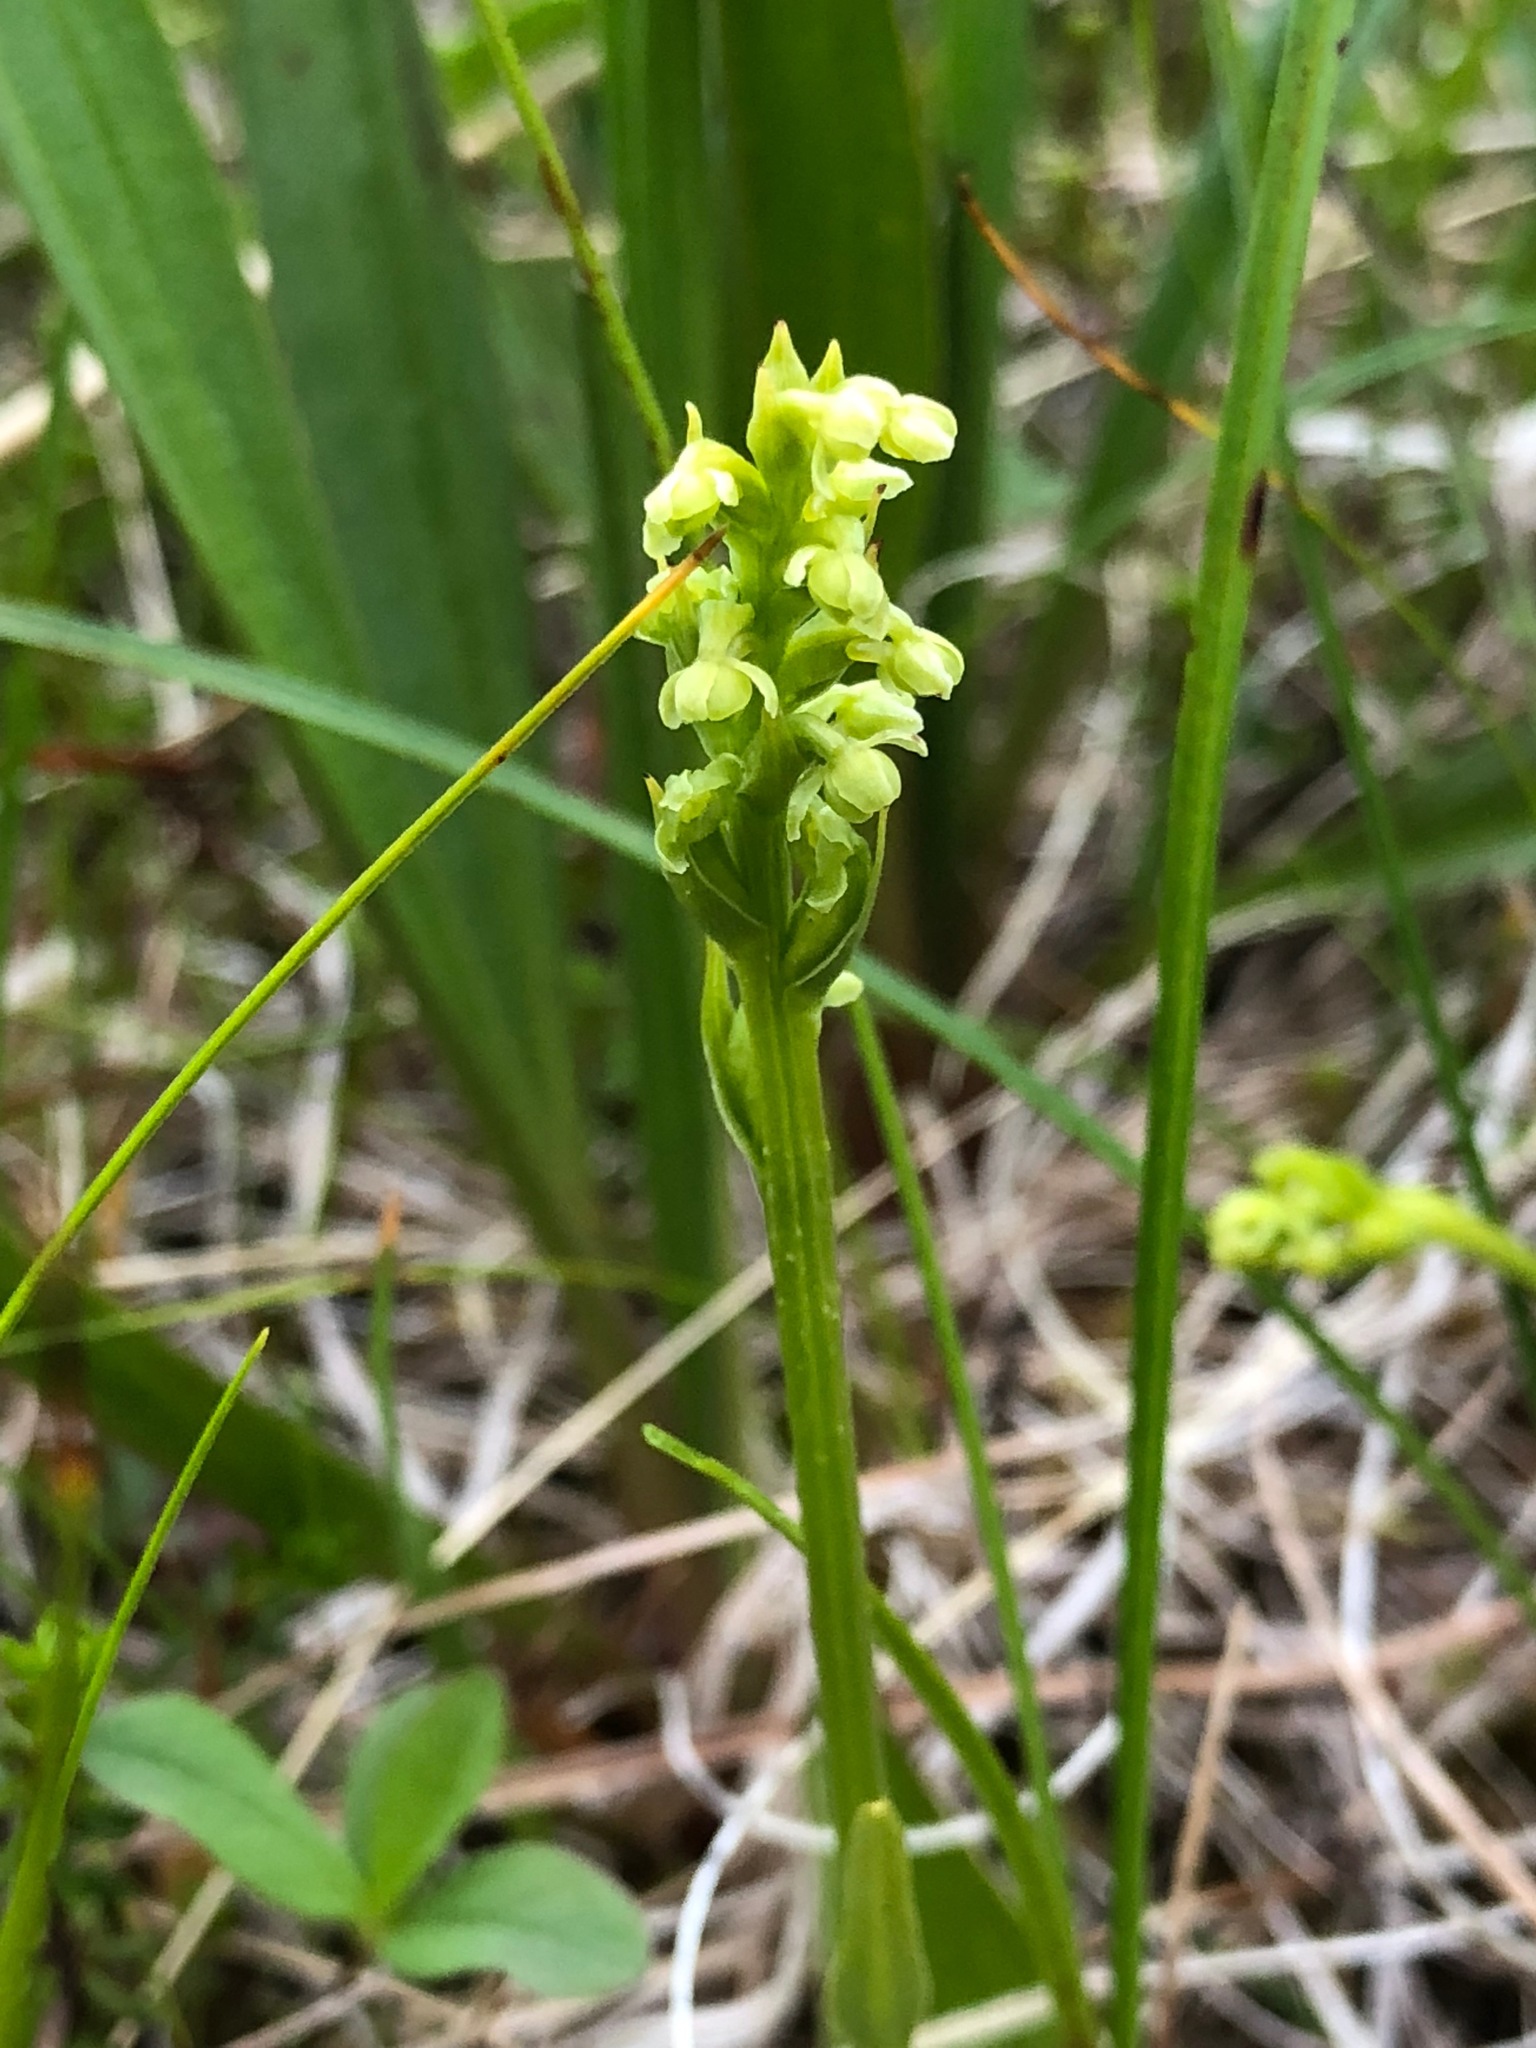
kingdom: Plantae
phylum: Tracheophyta
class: Liliopsida
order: Asparagales
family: Orchidaceae
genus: Platanthera
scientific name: Platanthera chorisiana
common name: Chamisso's orchid
